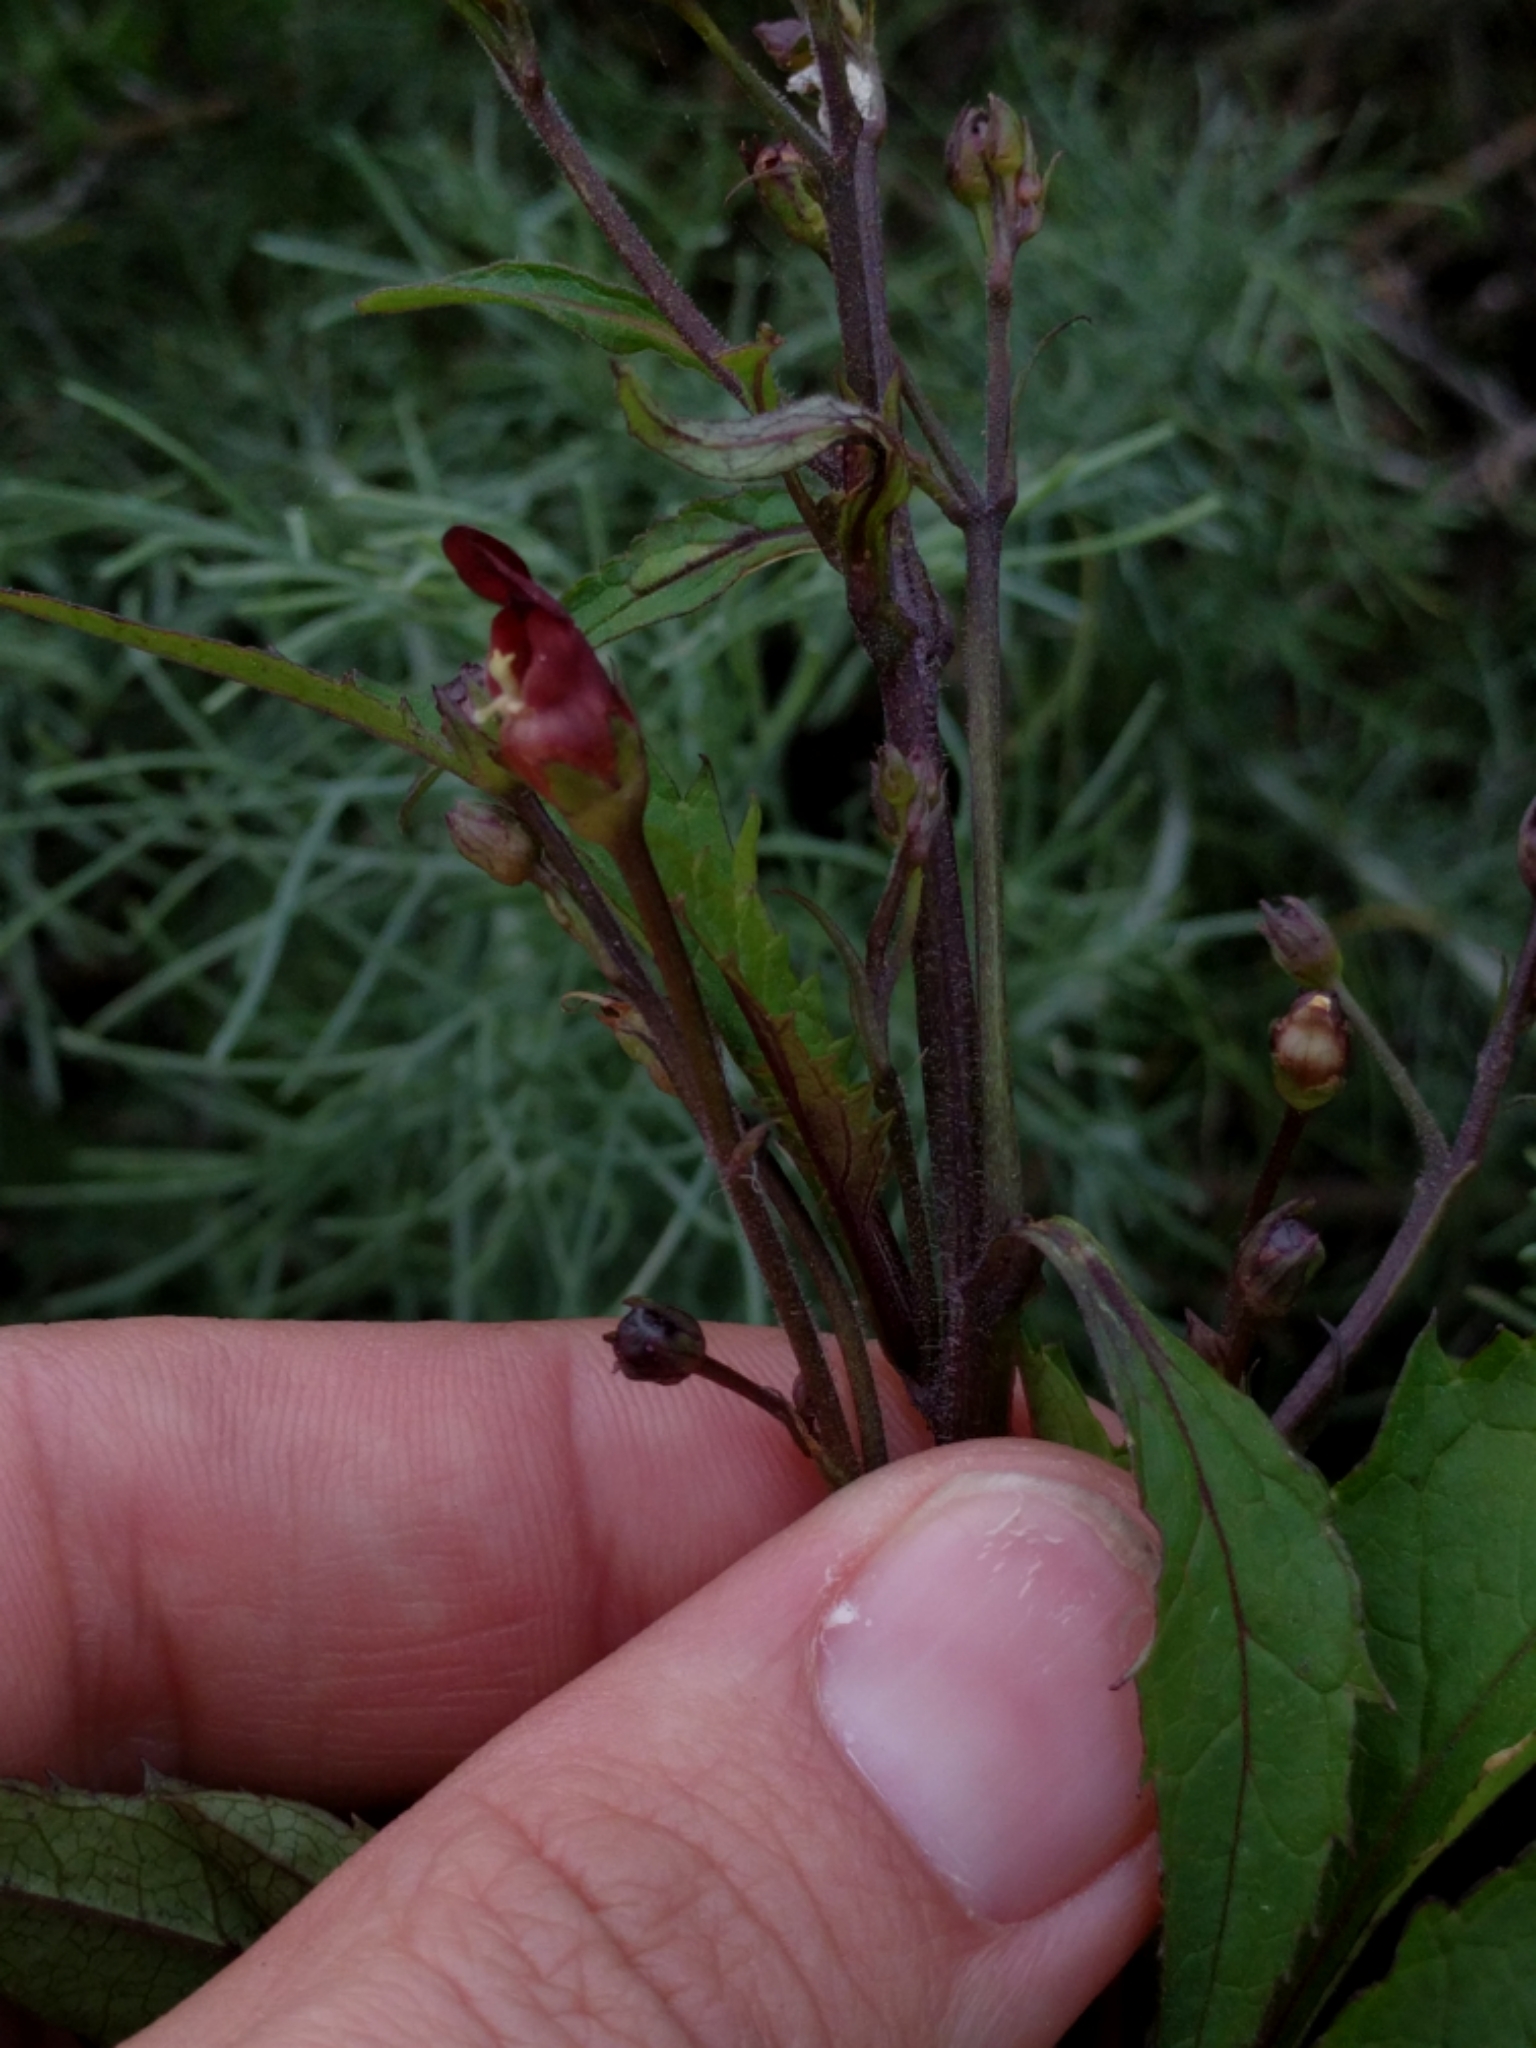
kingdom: Plantae
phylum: Tracheophyta
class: Magnoliopsida
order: Lamiales
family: Scrophulariaceae
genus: Scrophularia
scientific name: Scrophularia californica
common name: California figwort
